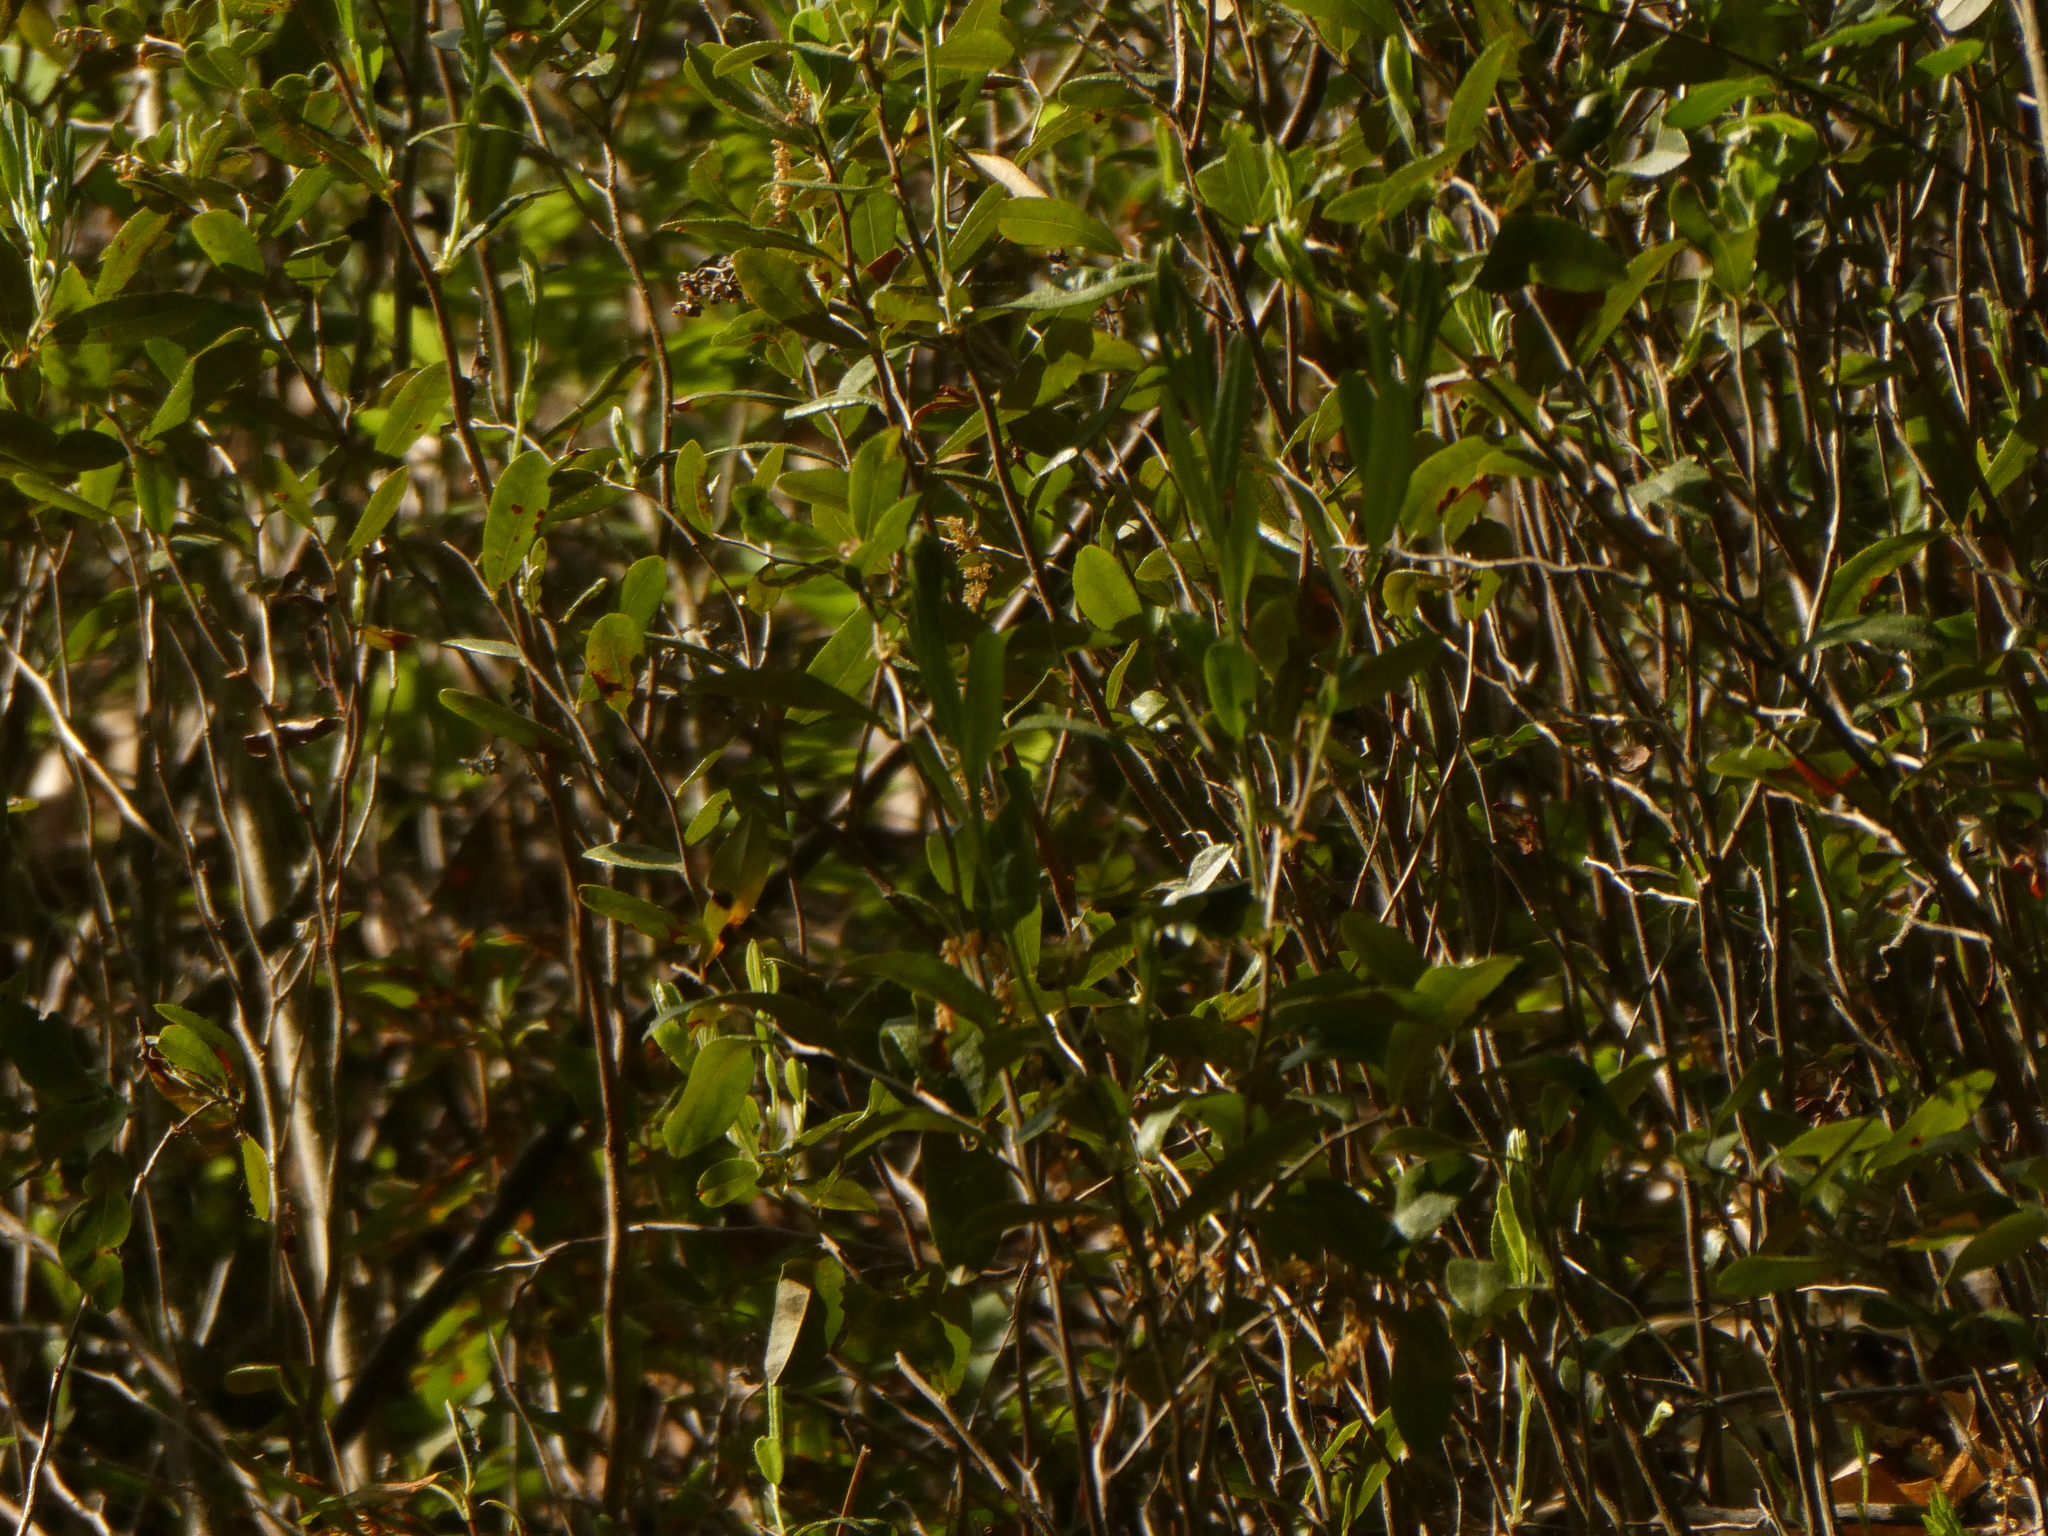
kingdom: Plantae
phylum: Tracheophyta
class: Magnoliopsida
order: Ericales
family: Ericaceae
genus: Chamaedaphne
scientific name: Chamaedaphne calyculata
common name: Leatherleaf
